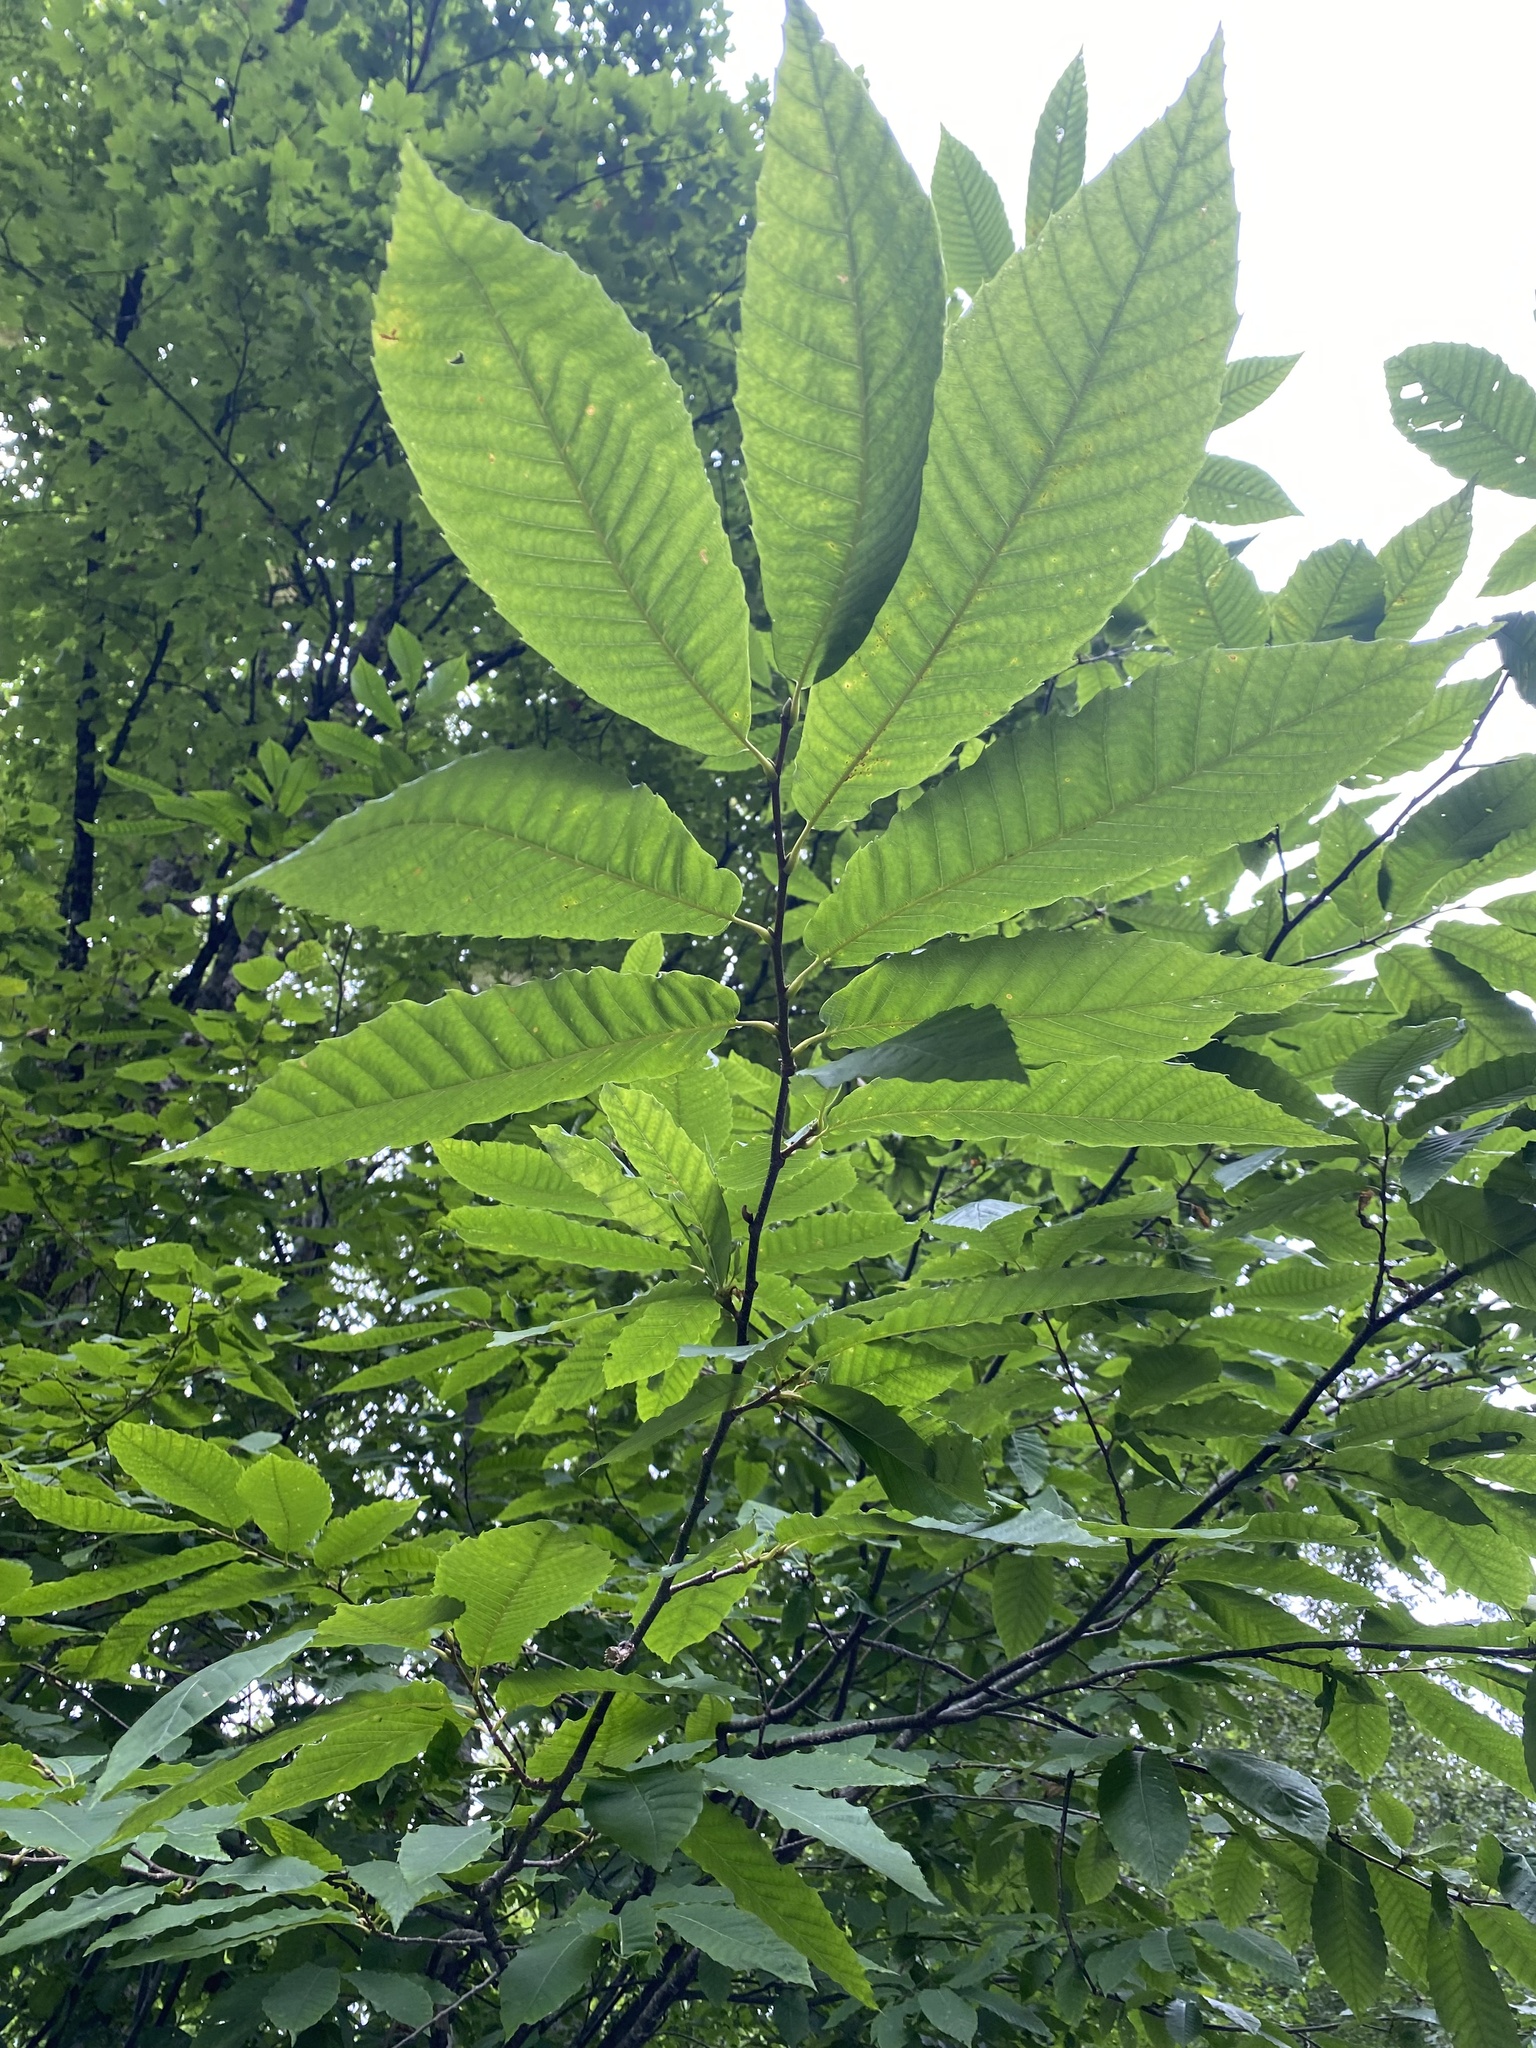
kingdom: Plantae
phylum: Tracheophyta
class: Magnoliopsida
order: Fagales
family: Fagaceae
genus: Castanea
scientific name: Castanea sativa
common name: Sweet chestnut
